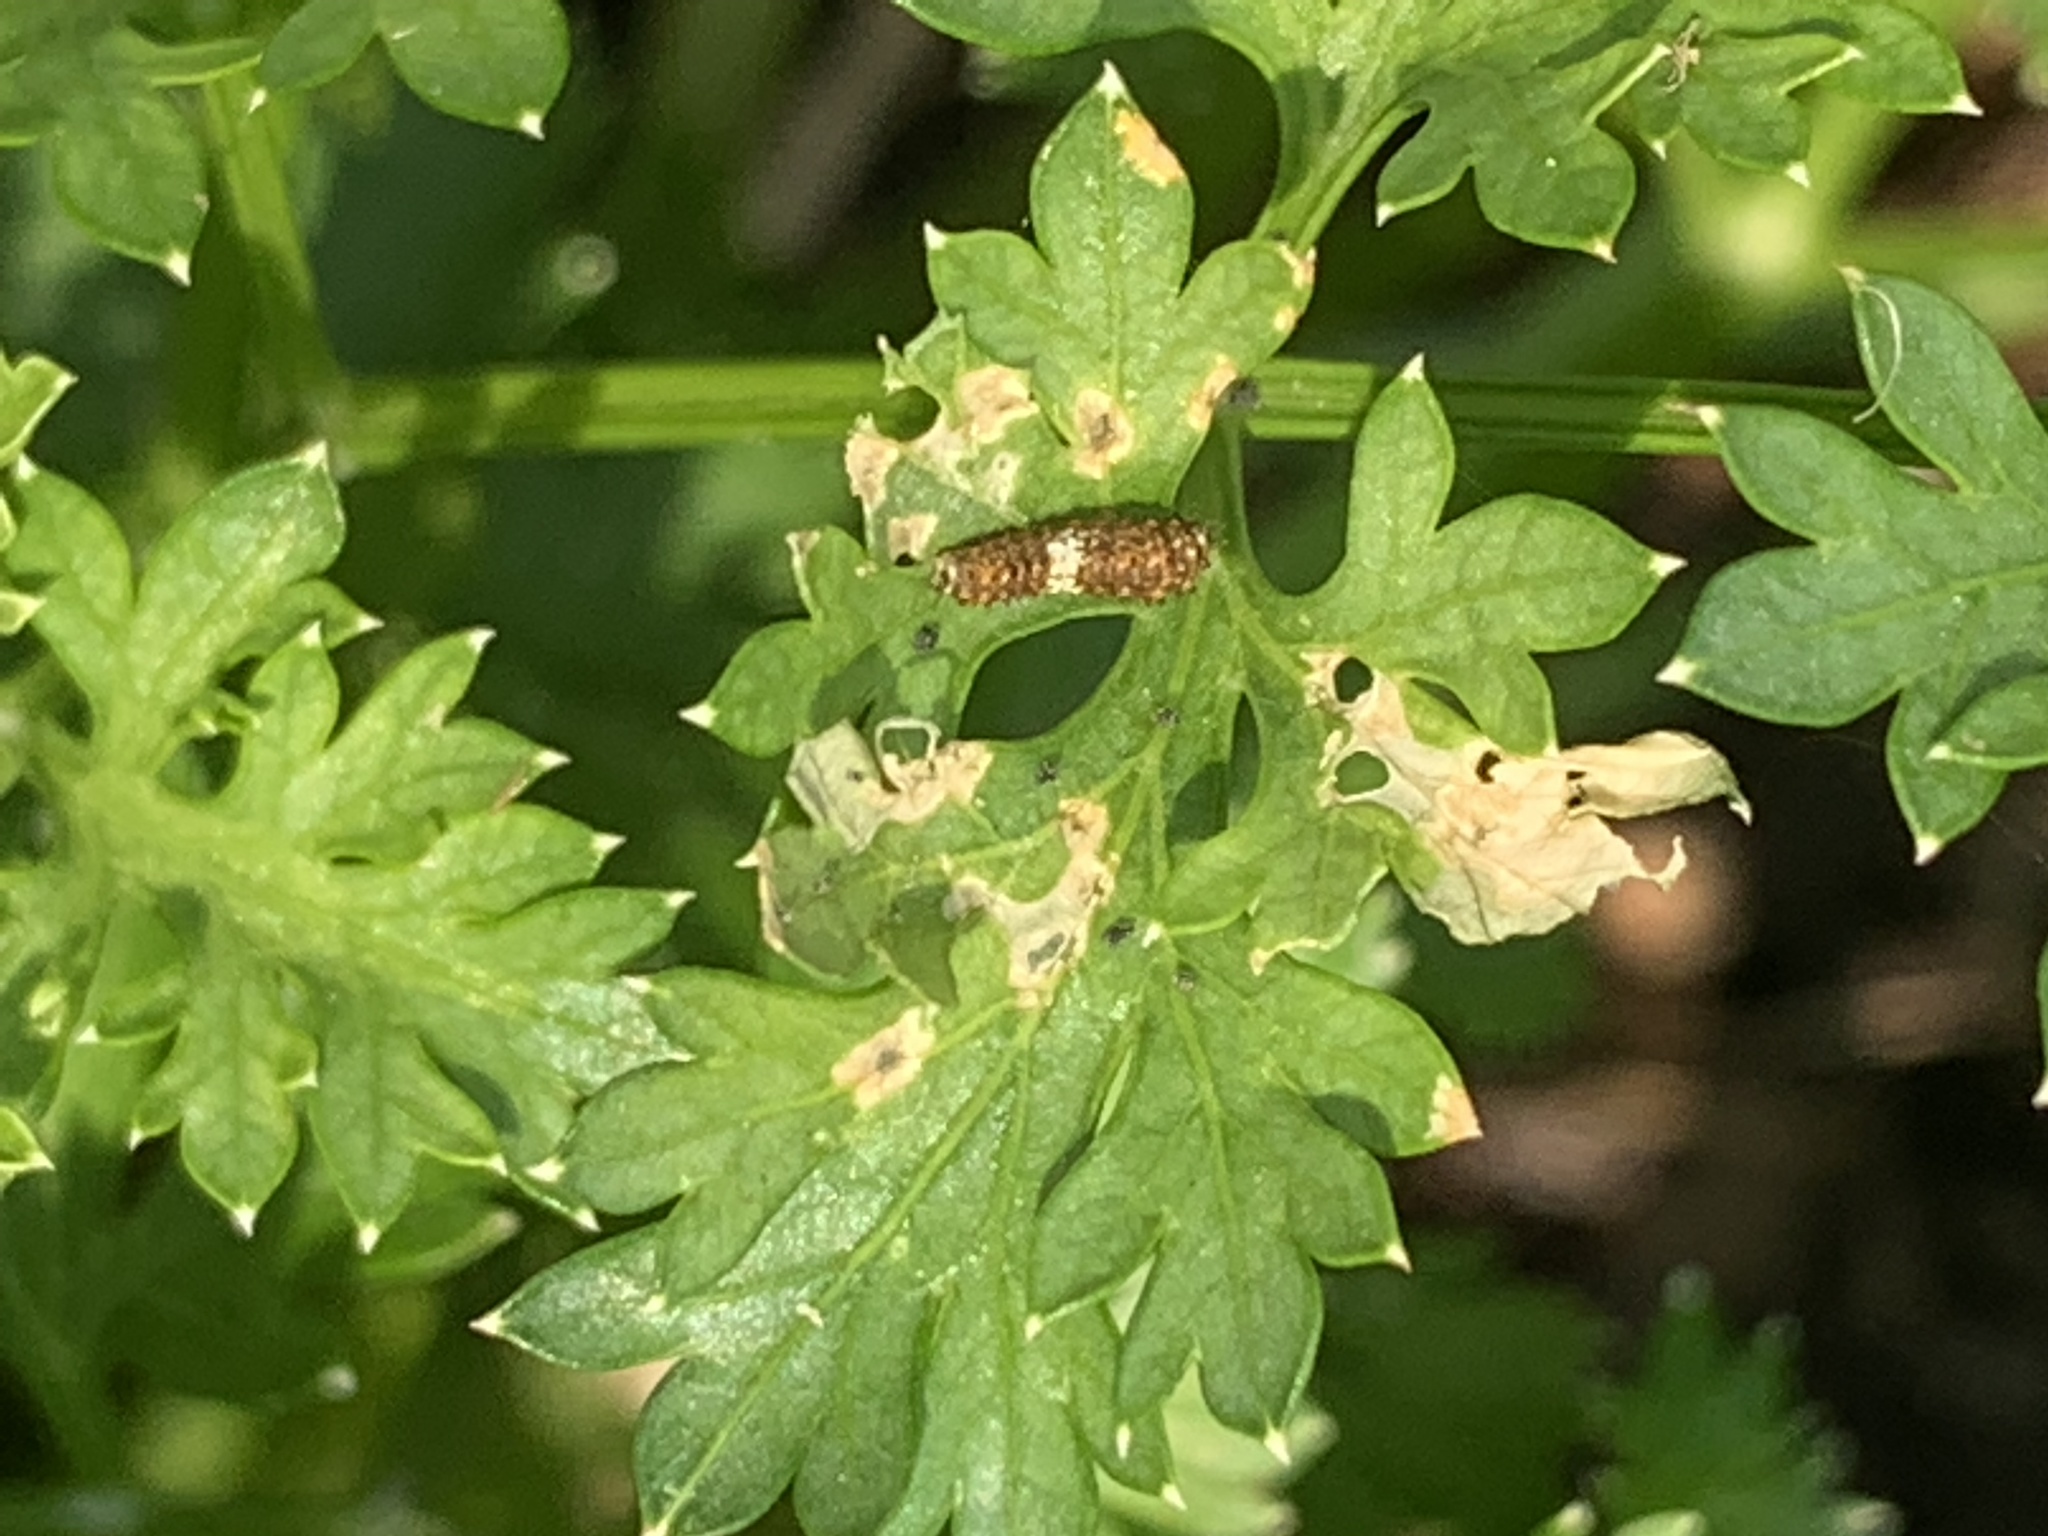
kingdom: Animalia
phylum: Arthropoda
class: Insecta
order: Lepidoptera
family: Papilionidae
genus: Papilio
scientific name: Papilio polyxenes
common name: Black swallowtail
